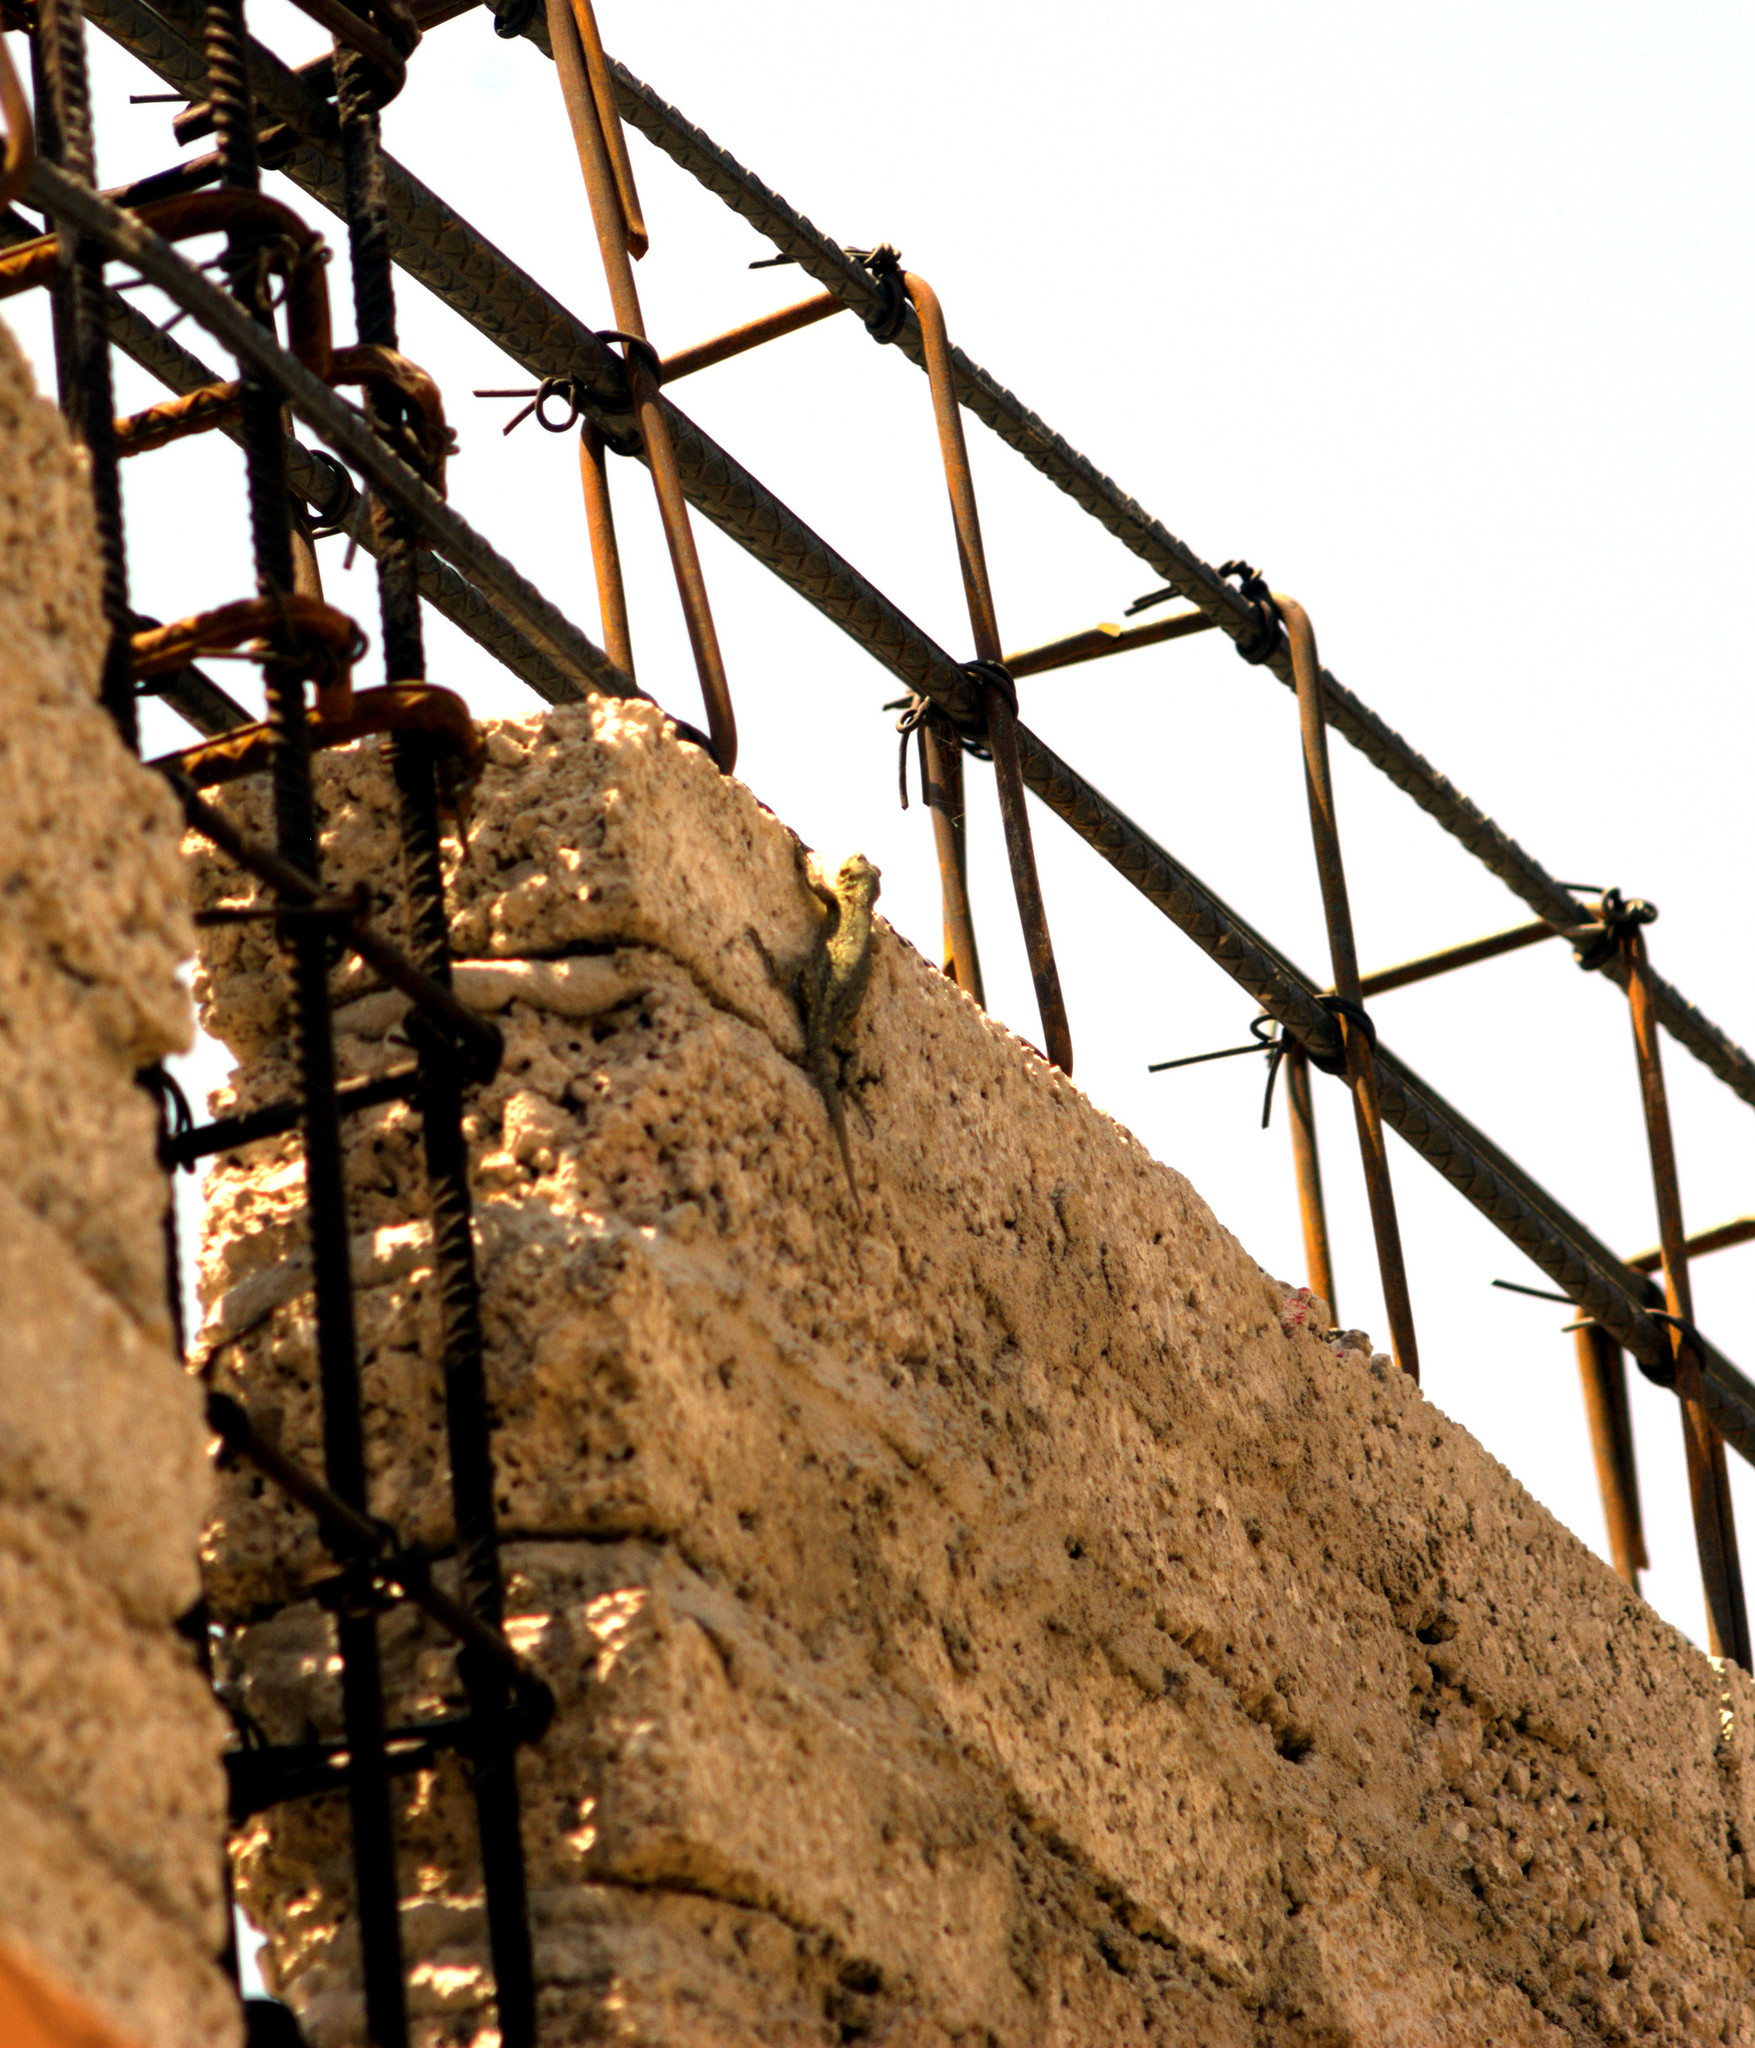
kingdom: Animalia
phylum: Chordata
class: Squamata
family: Phrynosomatidae
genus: Sceloporus
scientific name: Sceloporus grammicus
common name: Mesquite lizard
